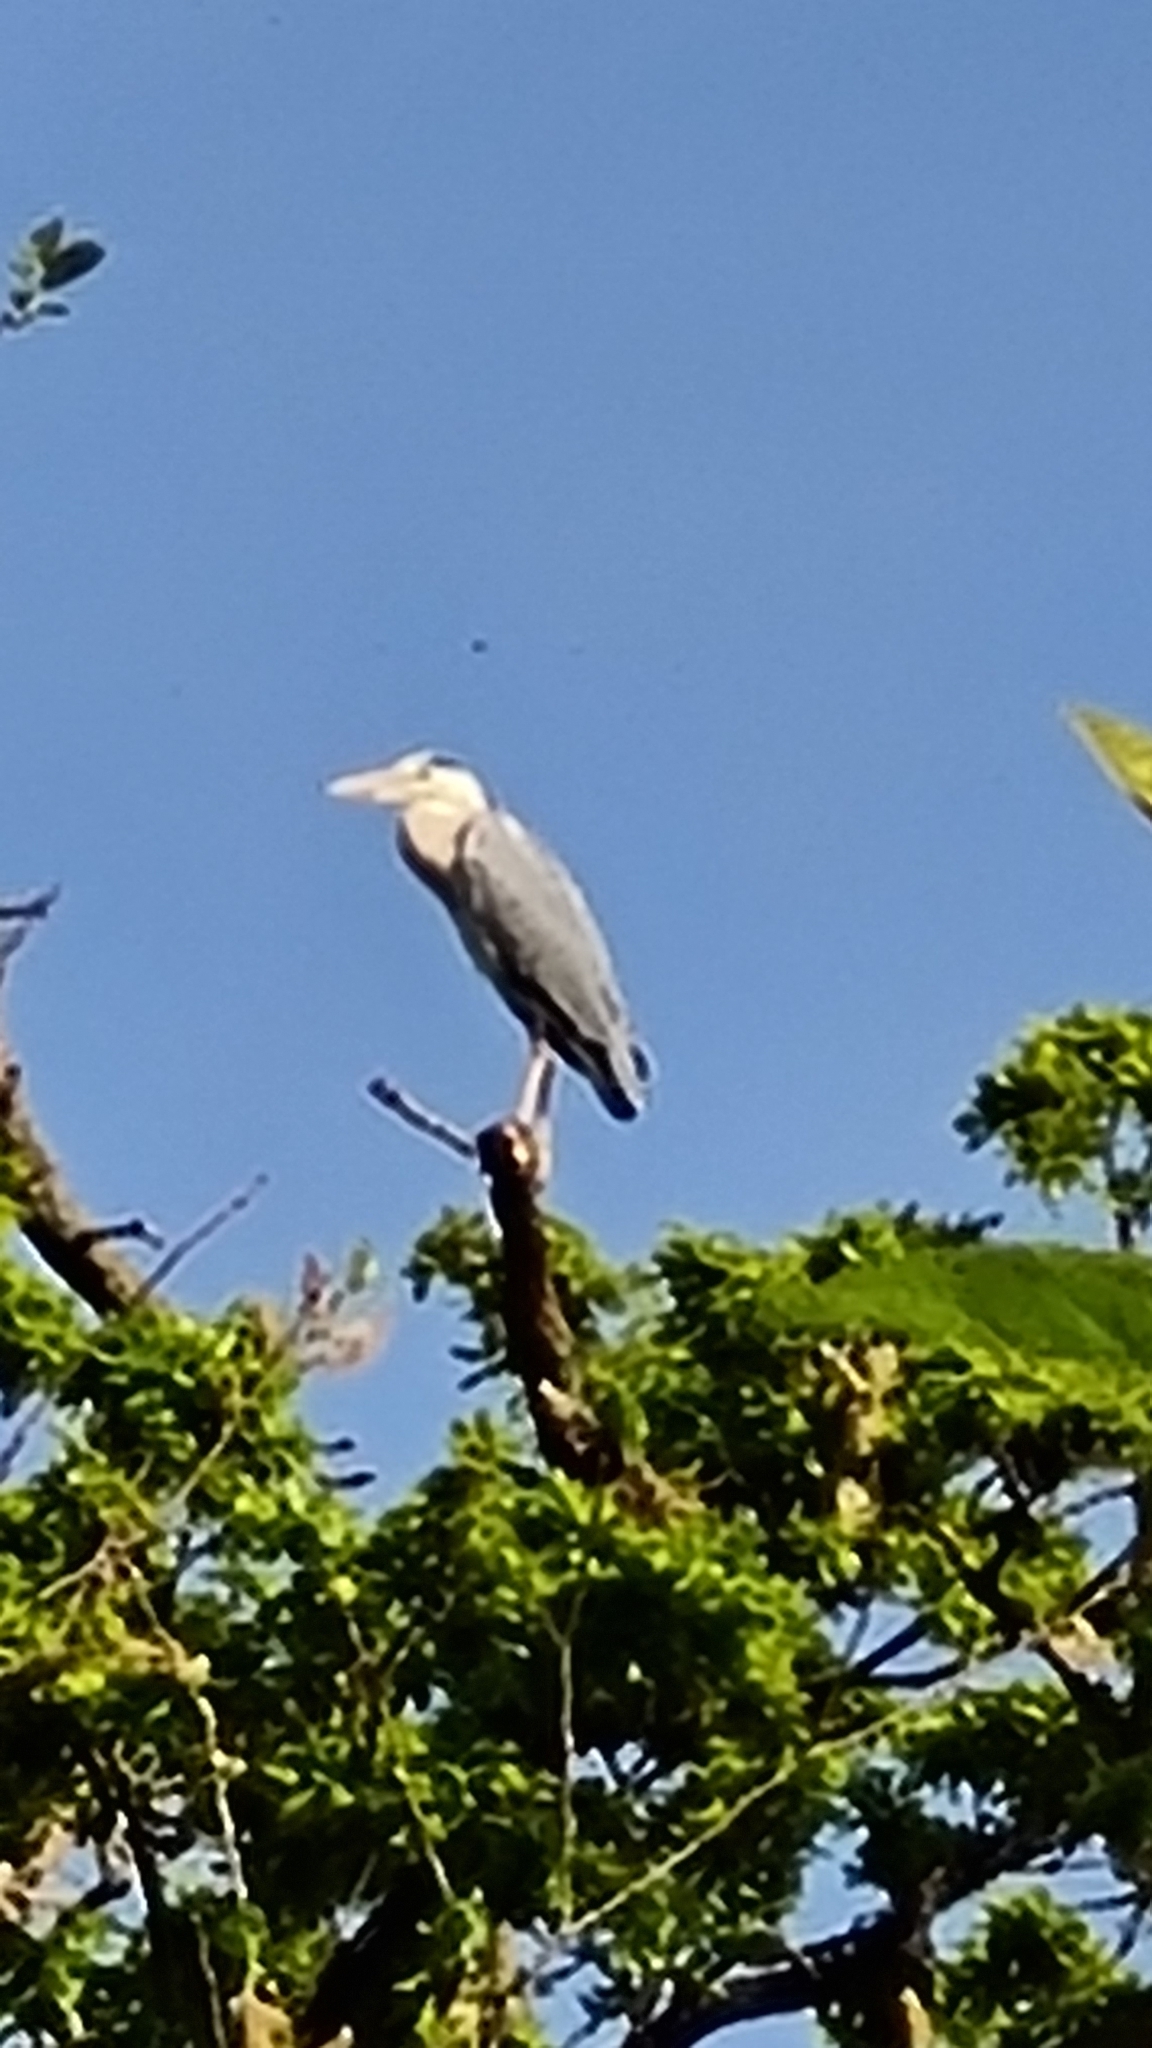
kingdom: Animalia
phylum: Chordata
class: Aves
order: Pelecaniformes
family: Ardeidae
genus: Ardea
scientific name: Ardea cinerea
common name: Grey heron
